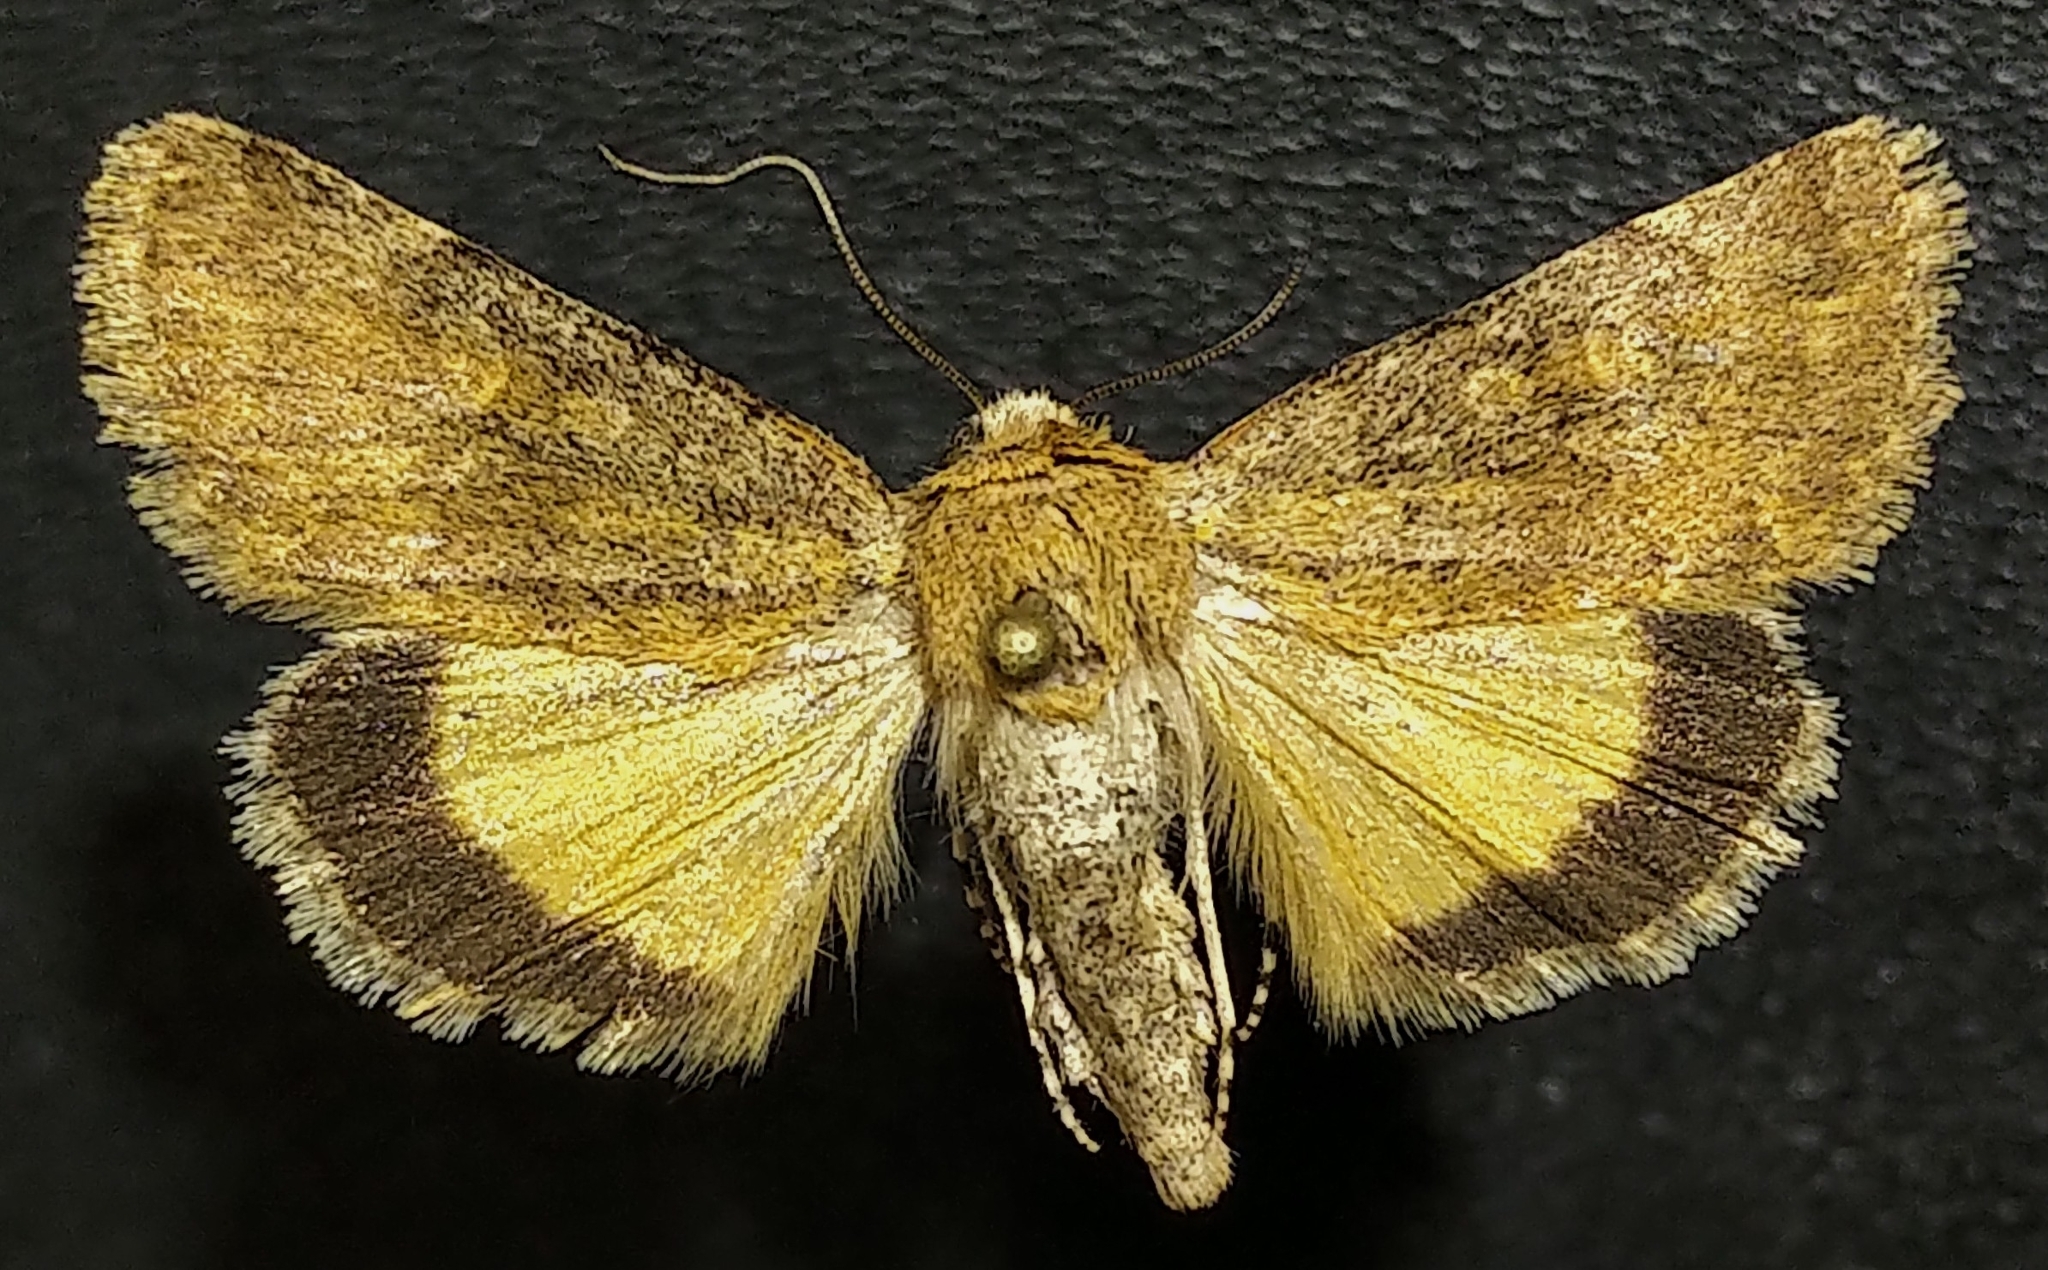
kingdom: Animalia
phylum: Arthropoda
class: Insecta
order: Lepidoptera
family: Noctuidae
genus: Sympistis
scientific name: Sympistis regina
